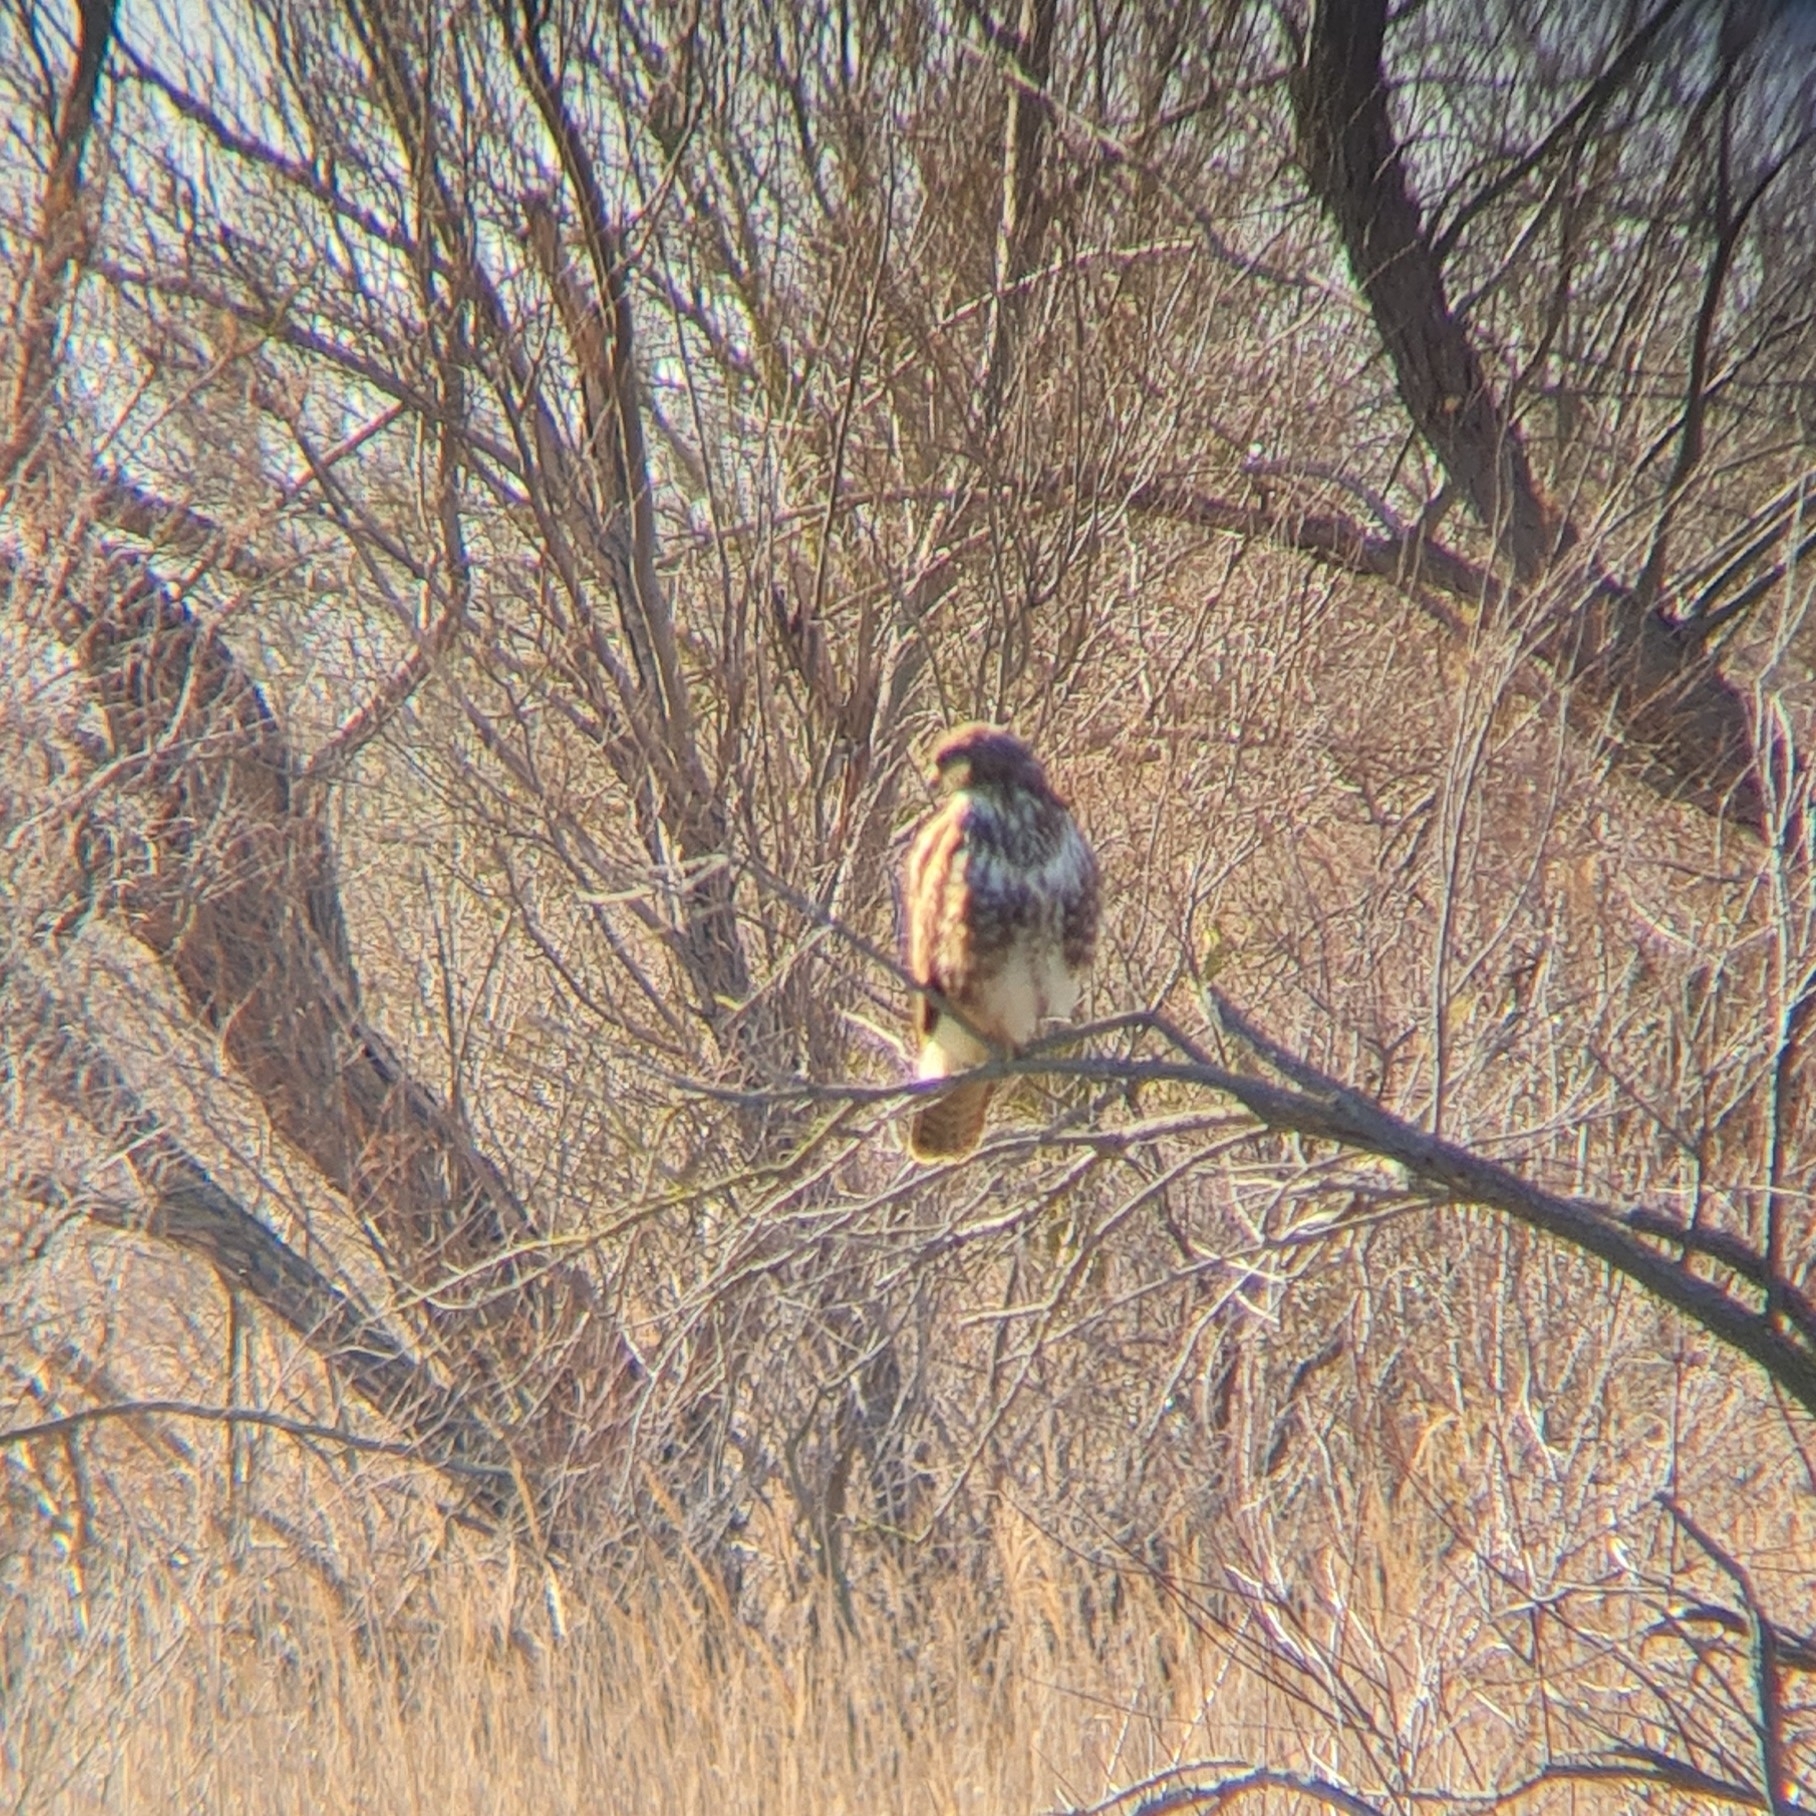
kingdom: Animalia
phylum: Chordata
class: Aves
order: Accipitriformes
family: Accipitridae
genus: Buteo
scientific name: Buteo buteo
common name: Common buzzard
